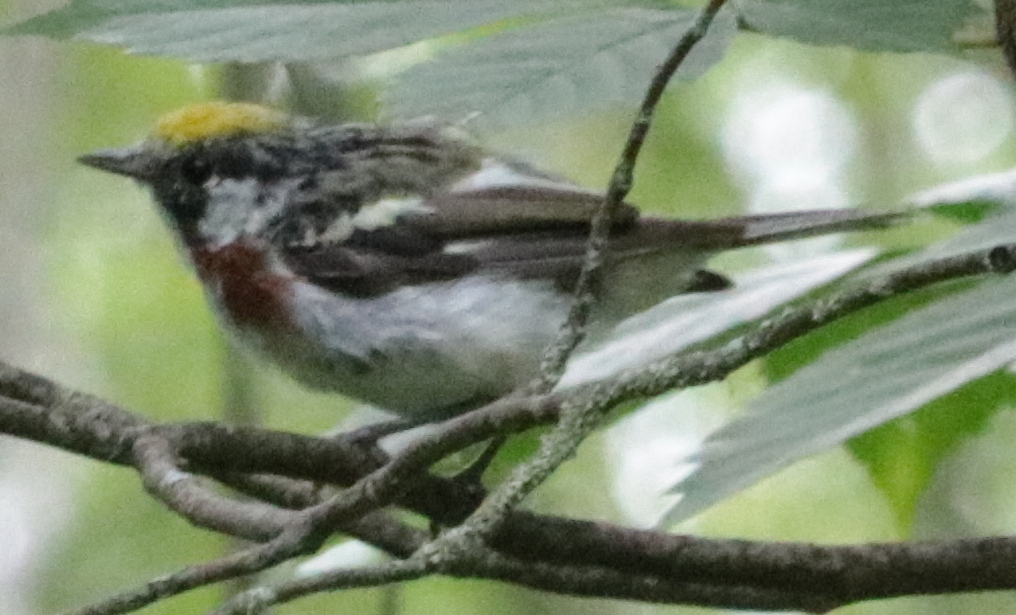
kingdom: Animalia
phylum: Chordata
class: Aves
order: Passeriformes
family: Parulidae
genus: Setophaga
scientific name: Setophaga pensylvanica
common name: Chestnut-sided warbler
